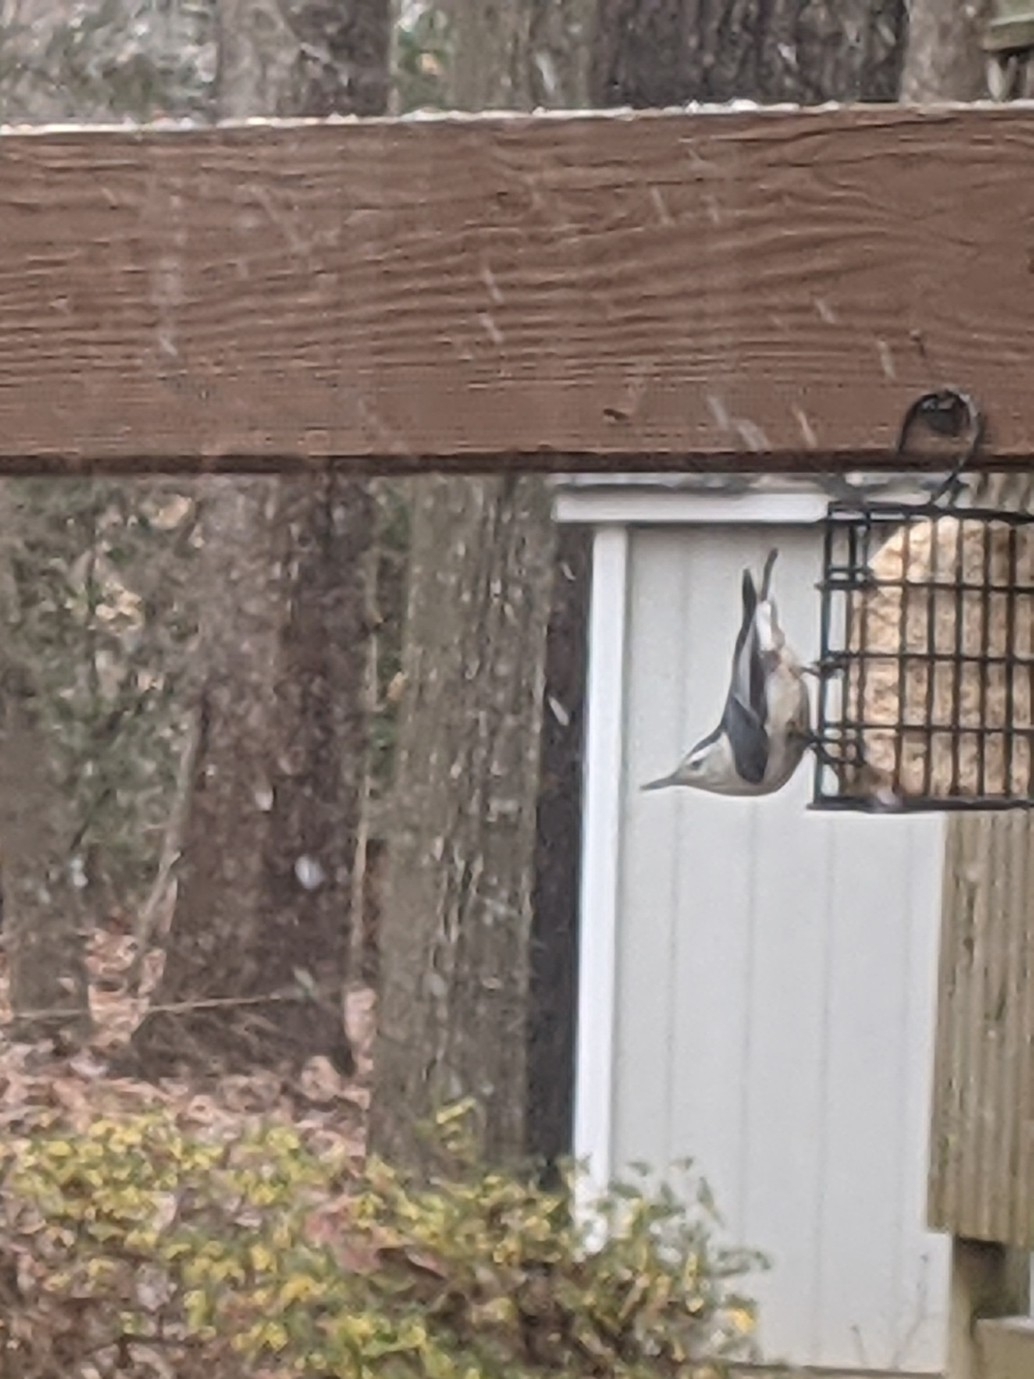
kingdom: Animalia
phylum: Chordata
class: Aves
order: Passeriformes
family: Sittidae
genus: Sitta
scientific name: Sitta carolinensis
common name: White-breasted nuthatch
